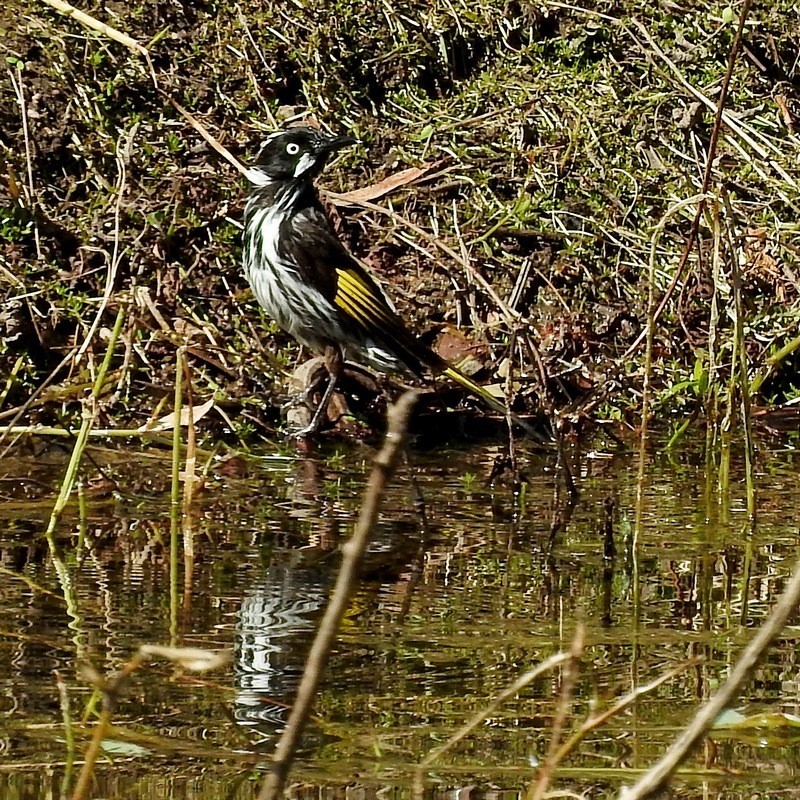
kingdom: Animalia
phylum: Chordata
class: Aves
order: Passeriformes
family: Meliphagidae
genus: Phylidonyris
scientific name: Phylidonyris novaehollandiae
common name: New holland honeyeater
